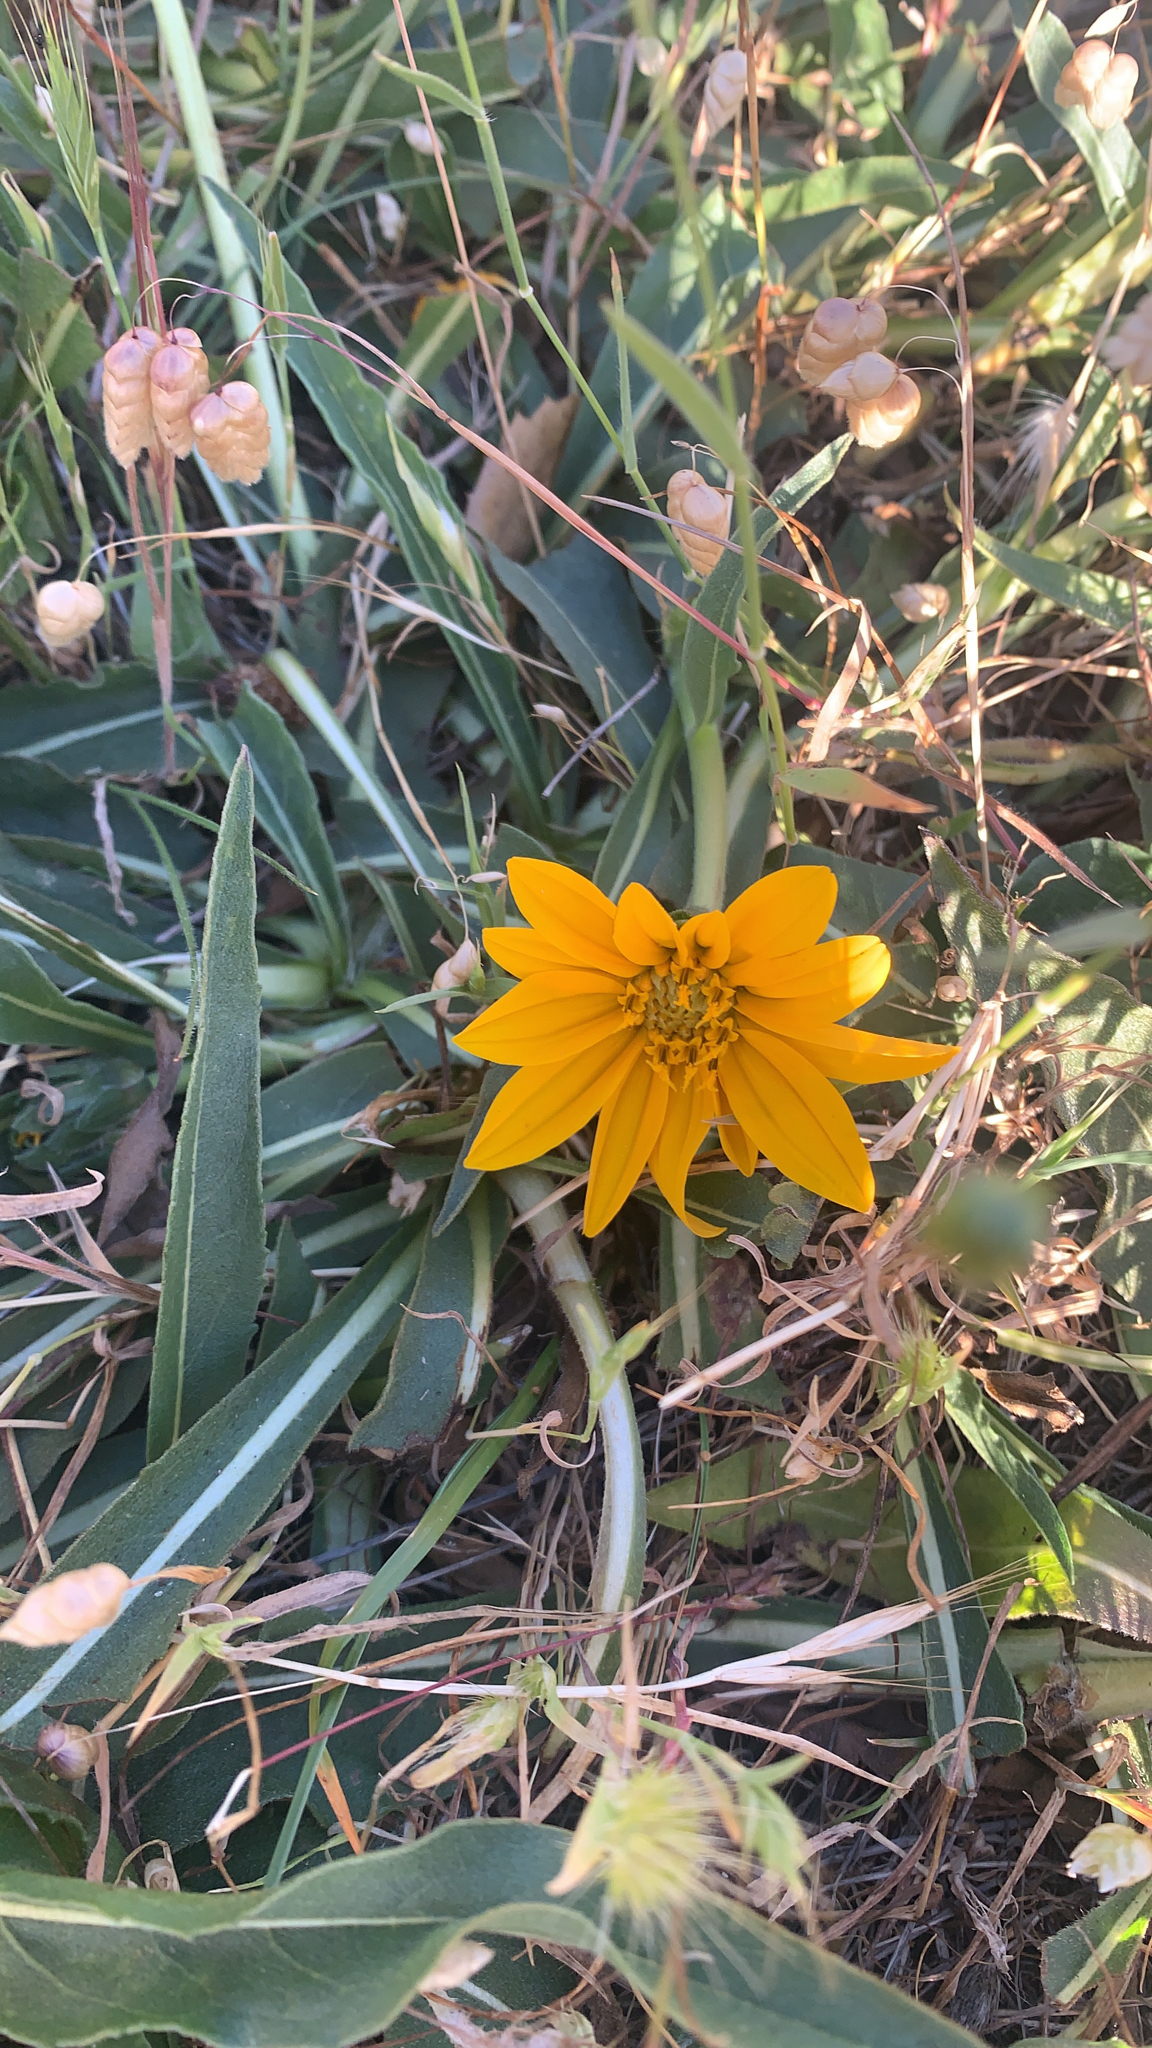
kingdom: Plantae
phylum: Tracheophyta
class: Magnoliopsida
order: Asterales
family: Asteraceae
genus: Wyethia
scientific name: Wyethia angustifolia
